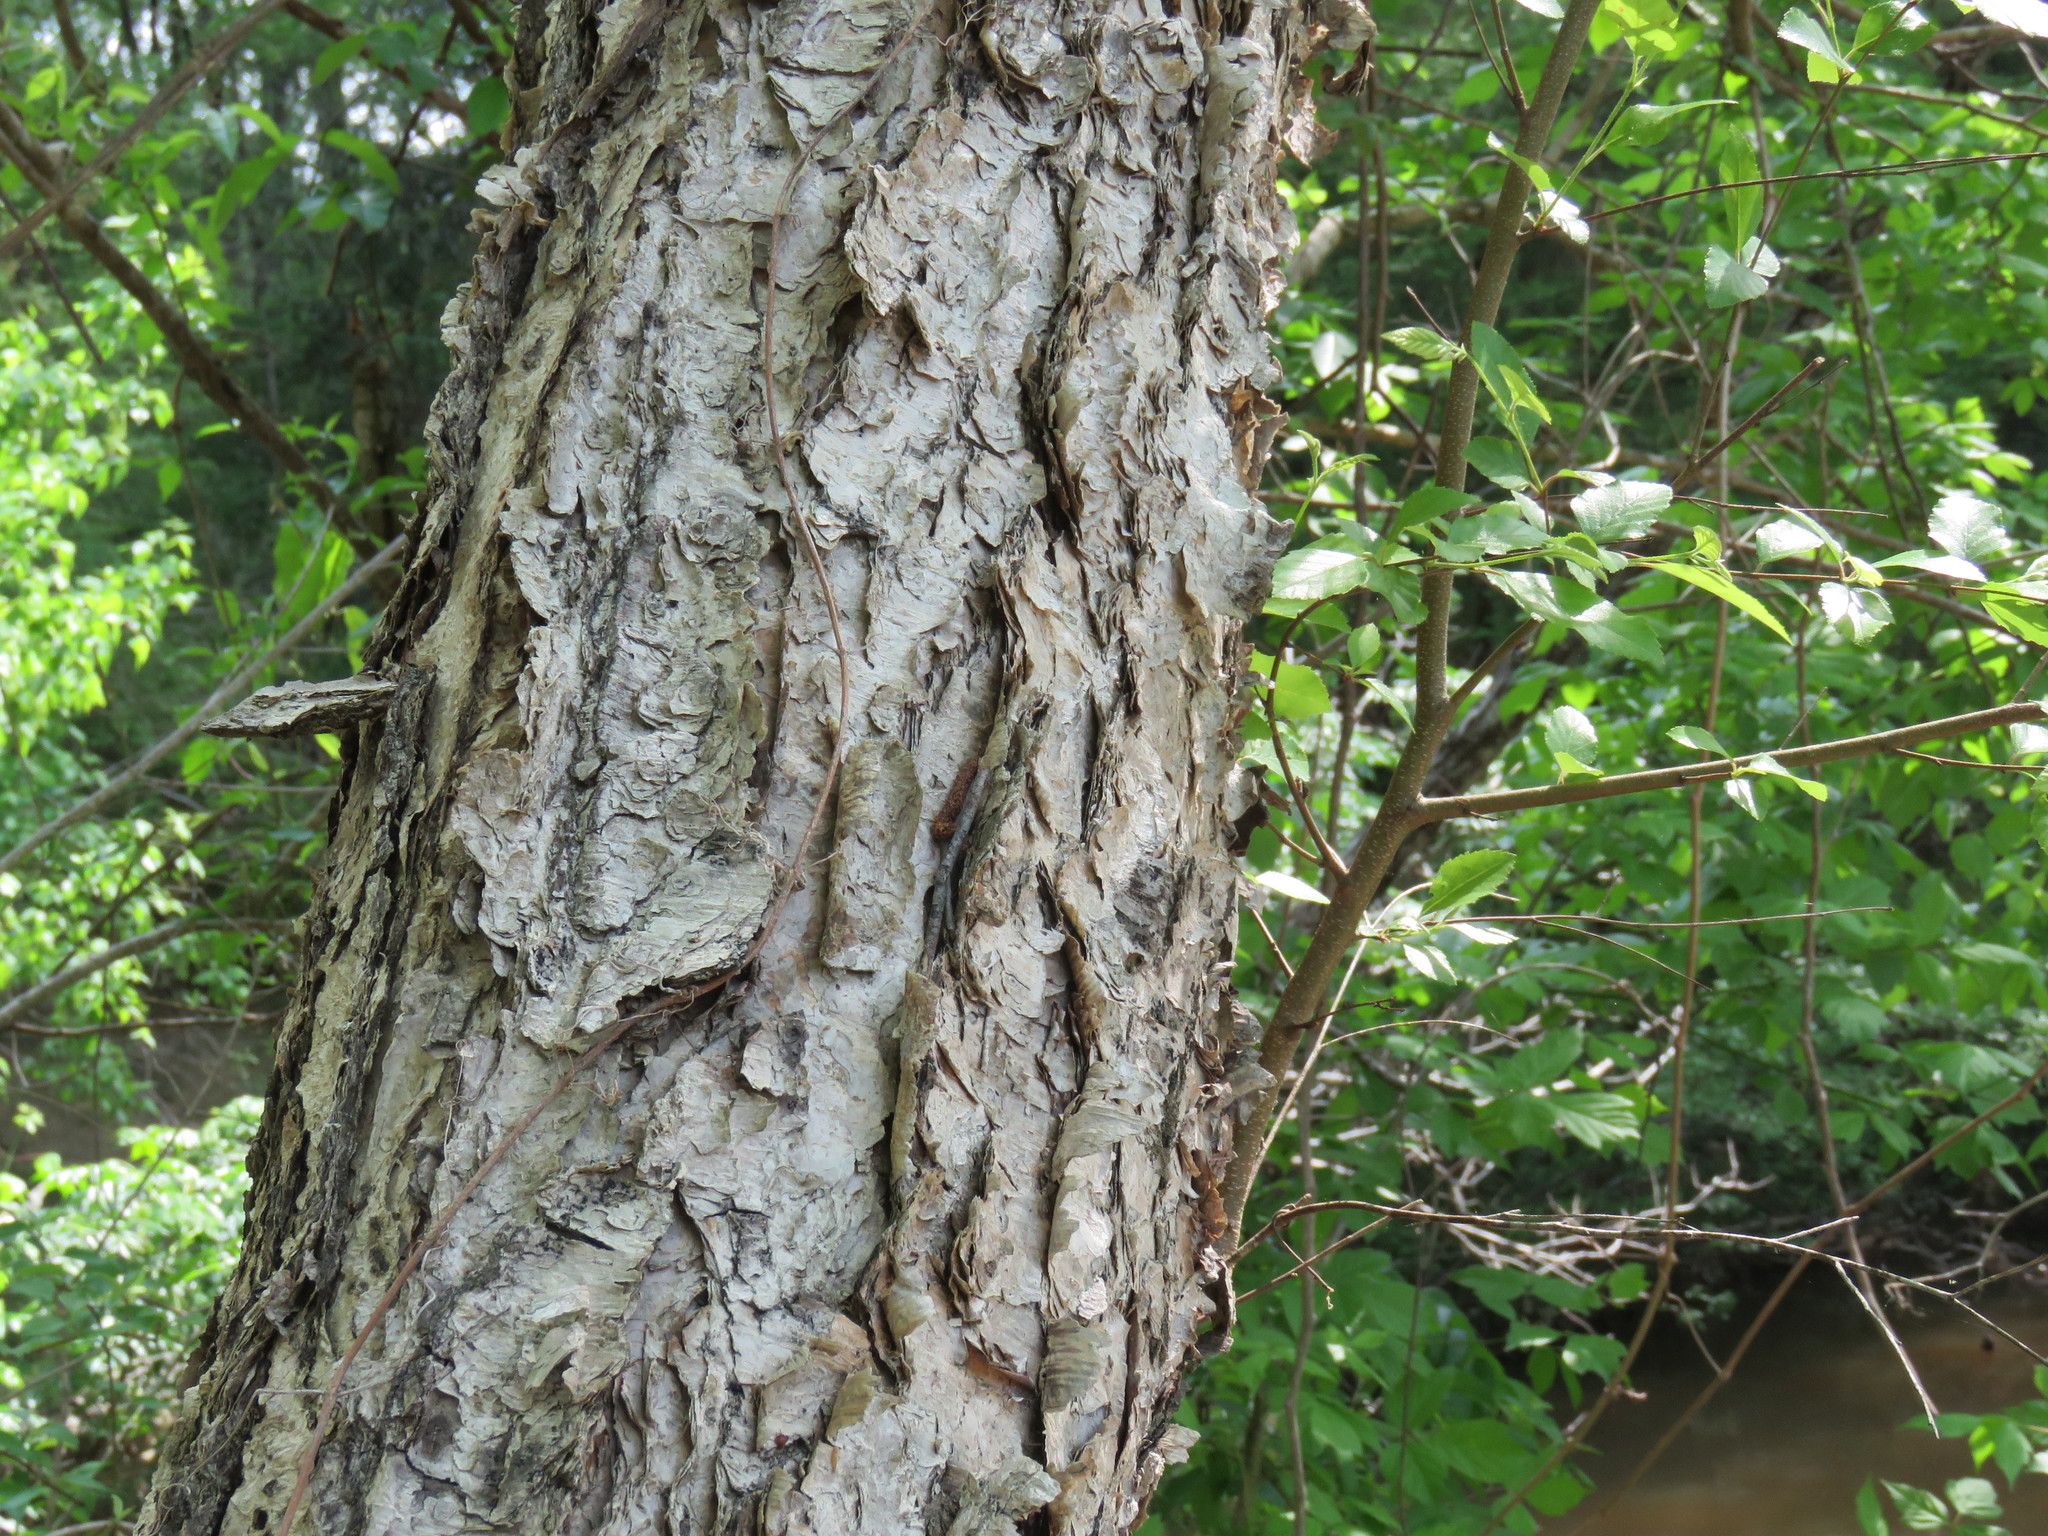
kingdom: Plantae
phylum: Tracheophyta
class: Magnoliopsida
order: Fagales
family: Betulaceae
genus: Betula
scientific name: Betula nigra
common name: Black birch
